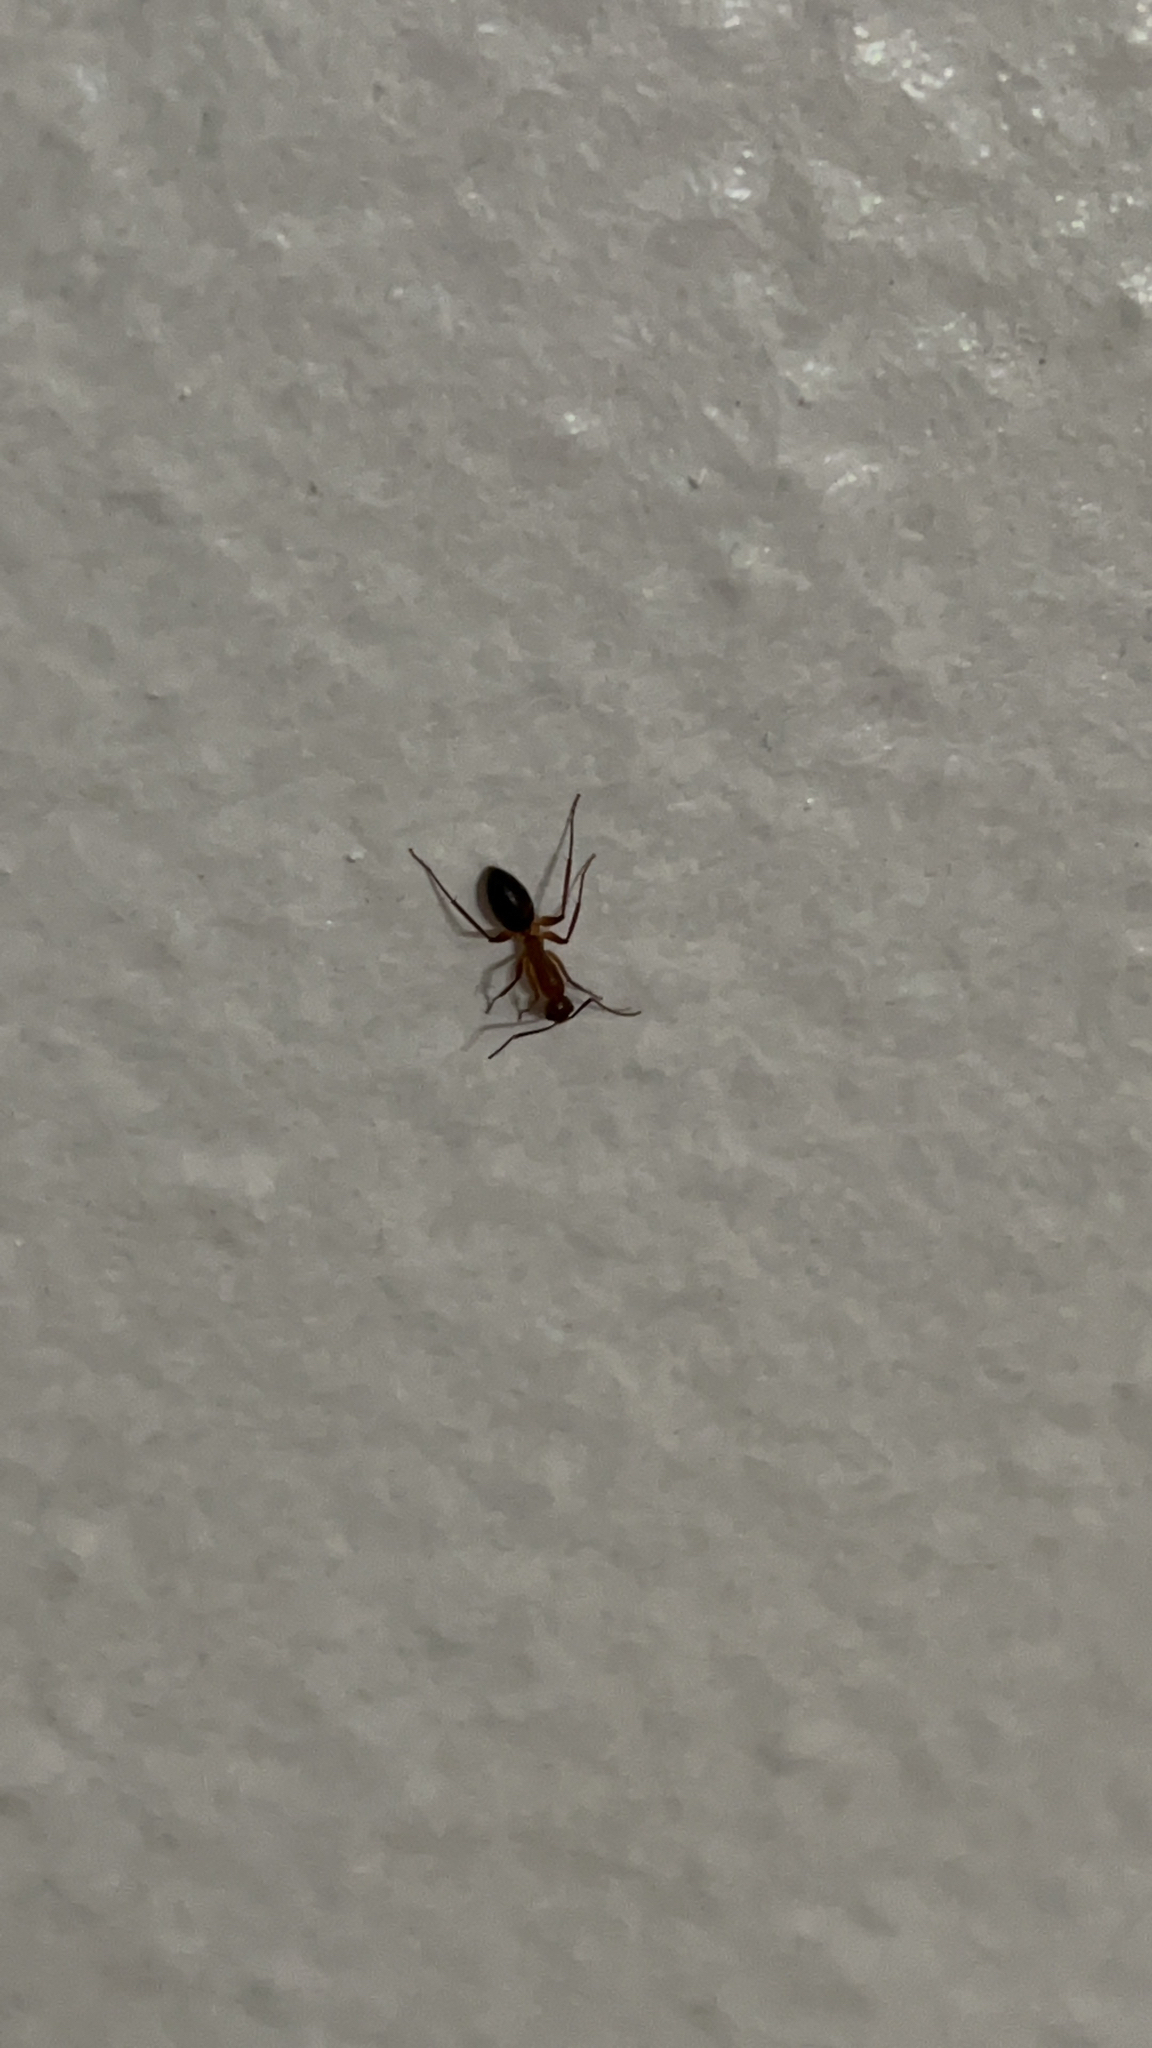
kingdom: Animalia
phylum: Arthropoda
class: Insecta
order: Hymenoptera
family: Formicidae
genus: Camponotus
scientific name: Camponotus inaequalis
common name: Ant
